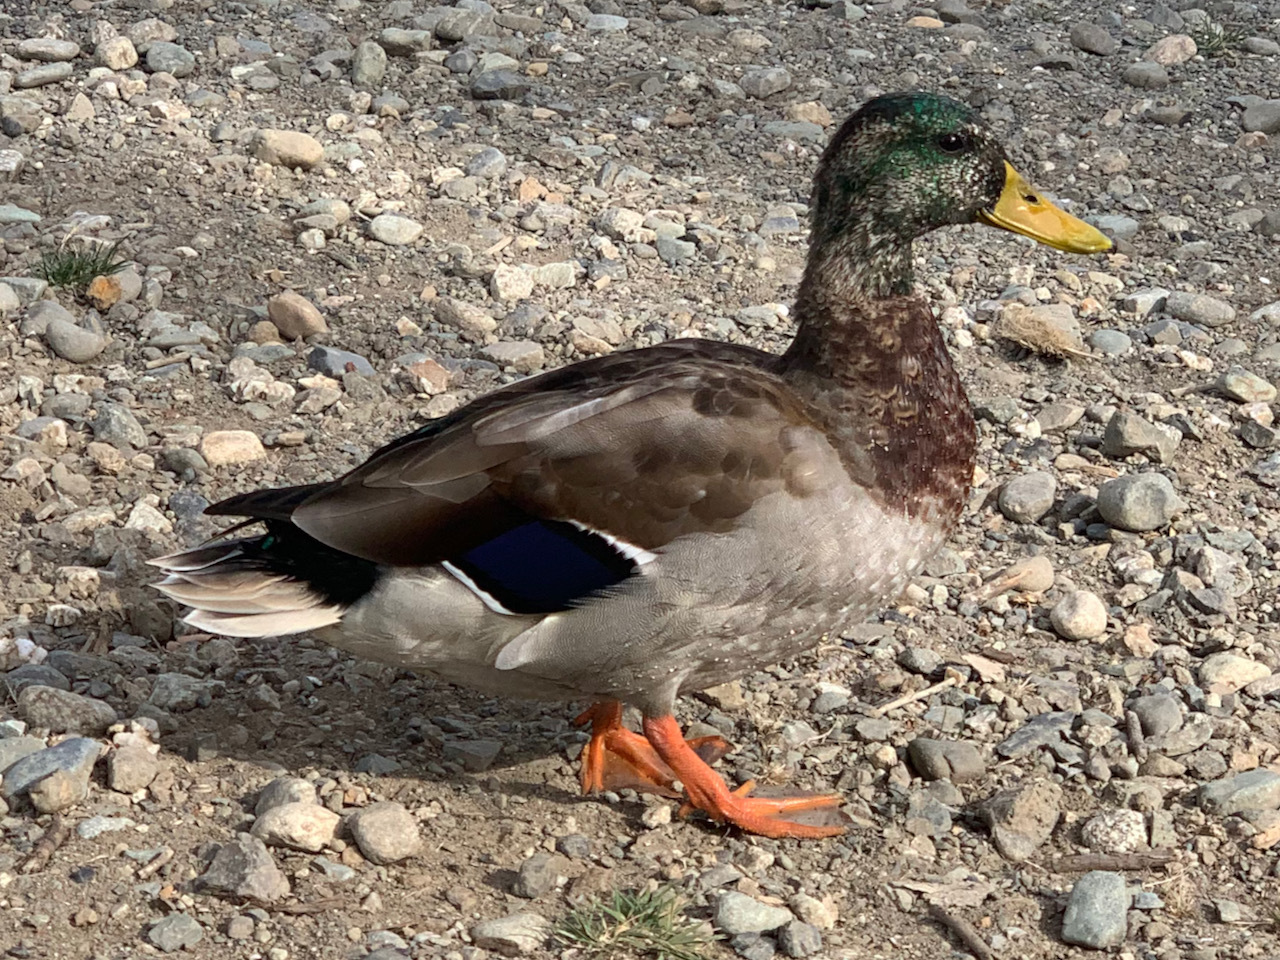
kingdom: Animalia
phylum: Chordata
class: Aves
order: Anseriformes
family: Anatidae
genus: Anas
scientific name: Anas platyrhynchos
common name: Mallard
